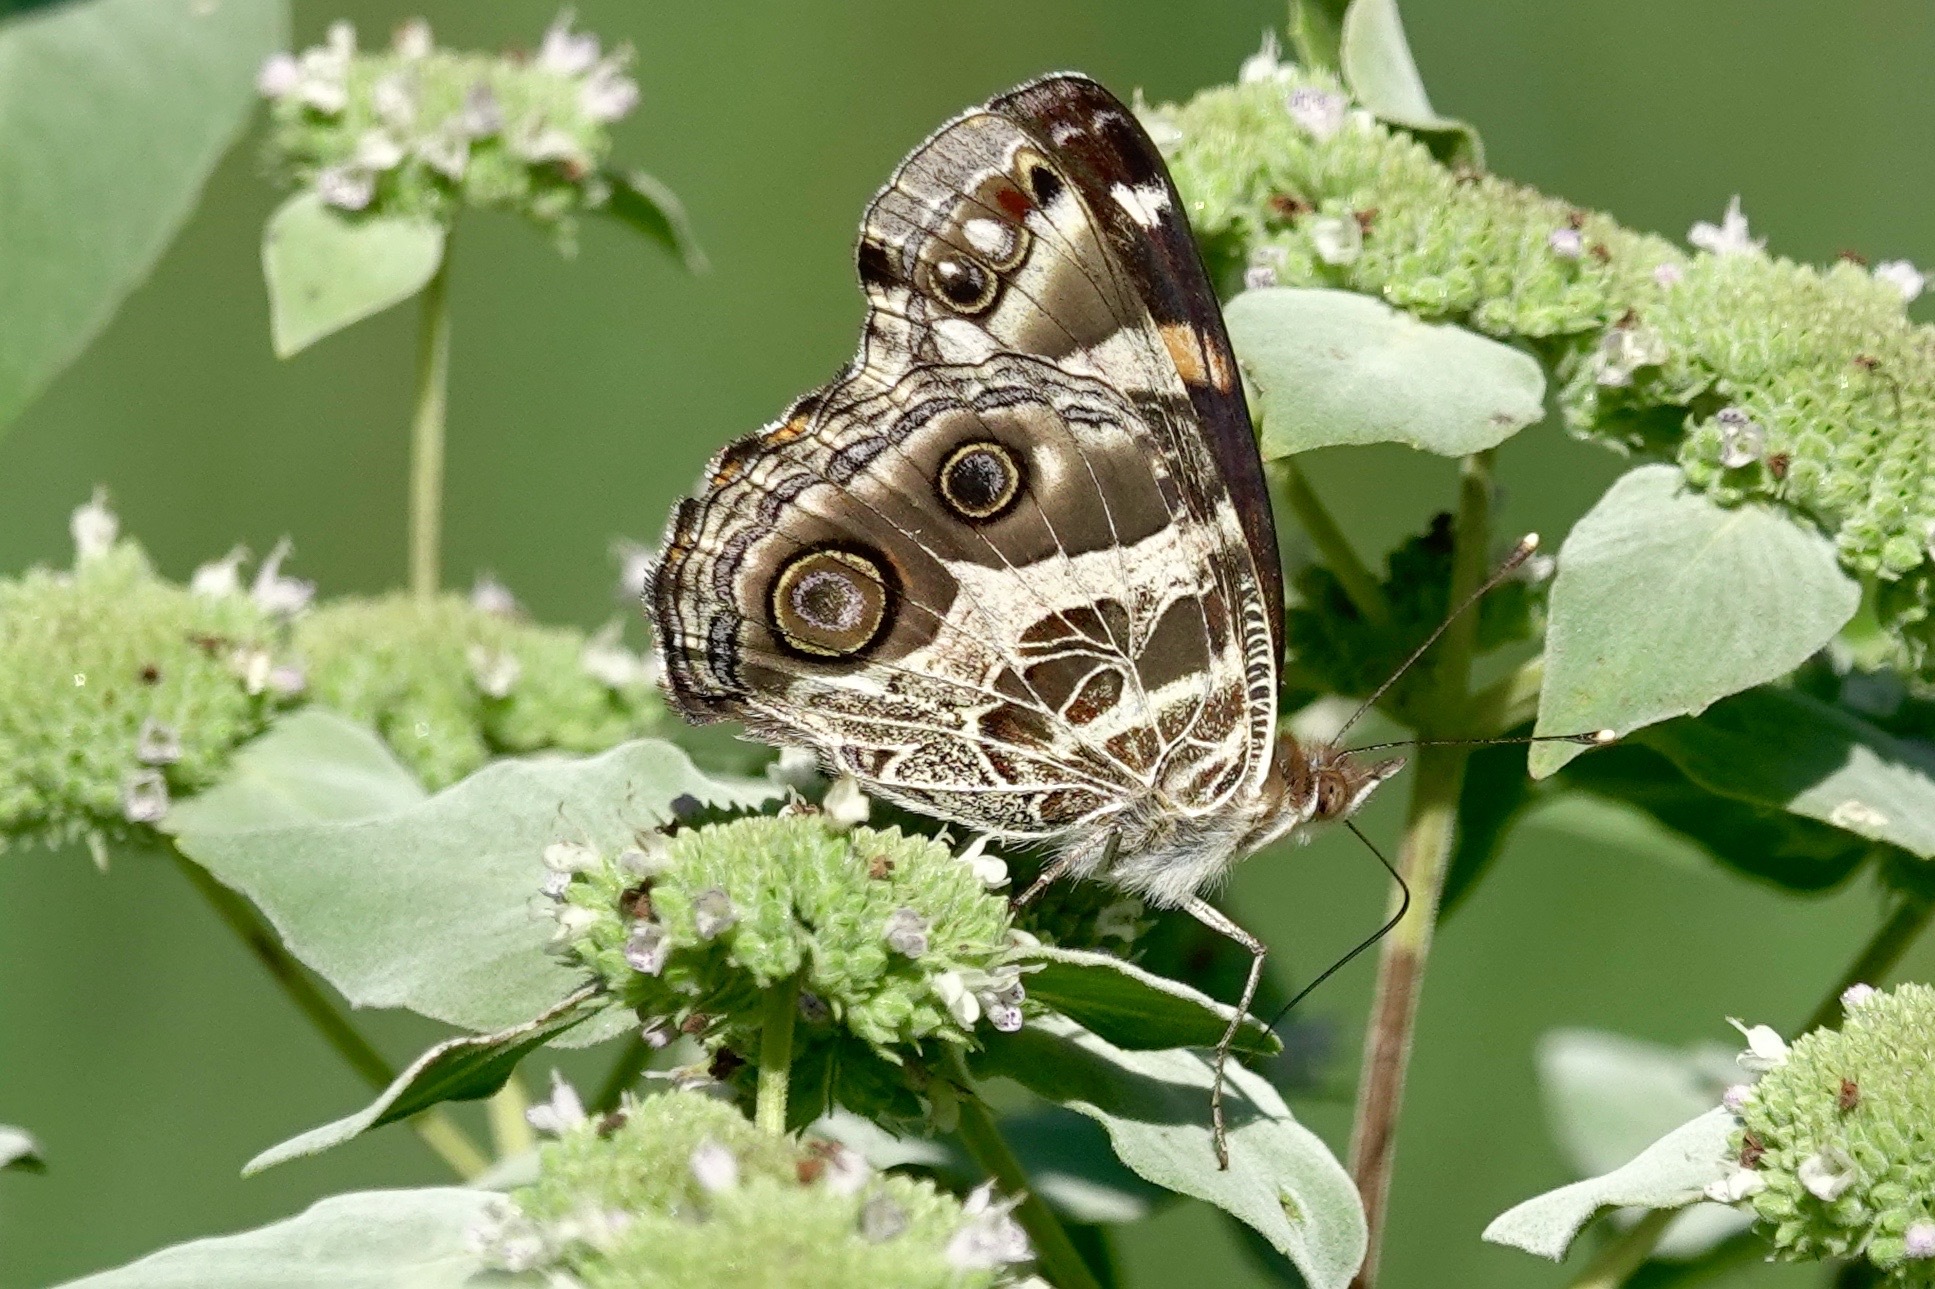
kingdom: Animalia
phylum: Arthropoda
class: Insecta
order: Lepidoptera
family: Nymphalidae
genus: Vanessa
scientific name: Vanessa virginiensis
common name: American lady
